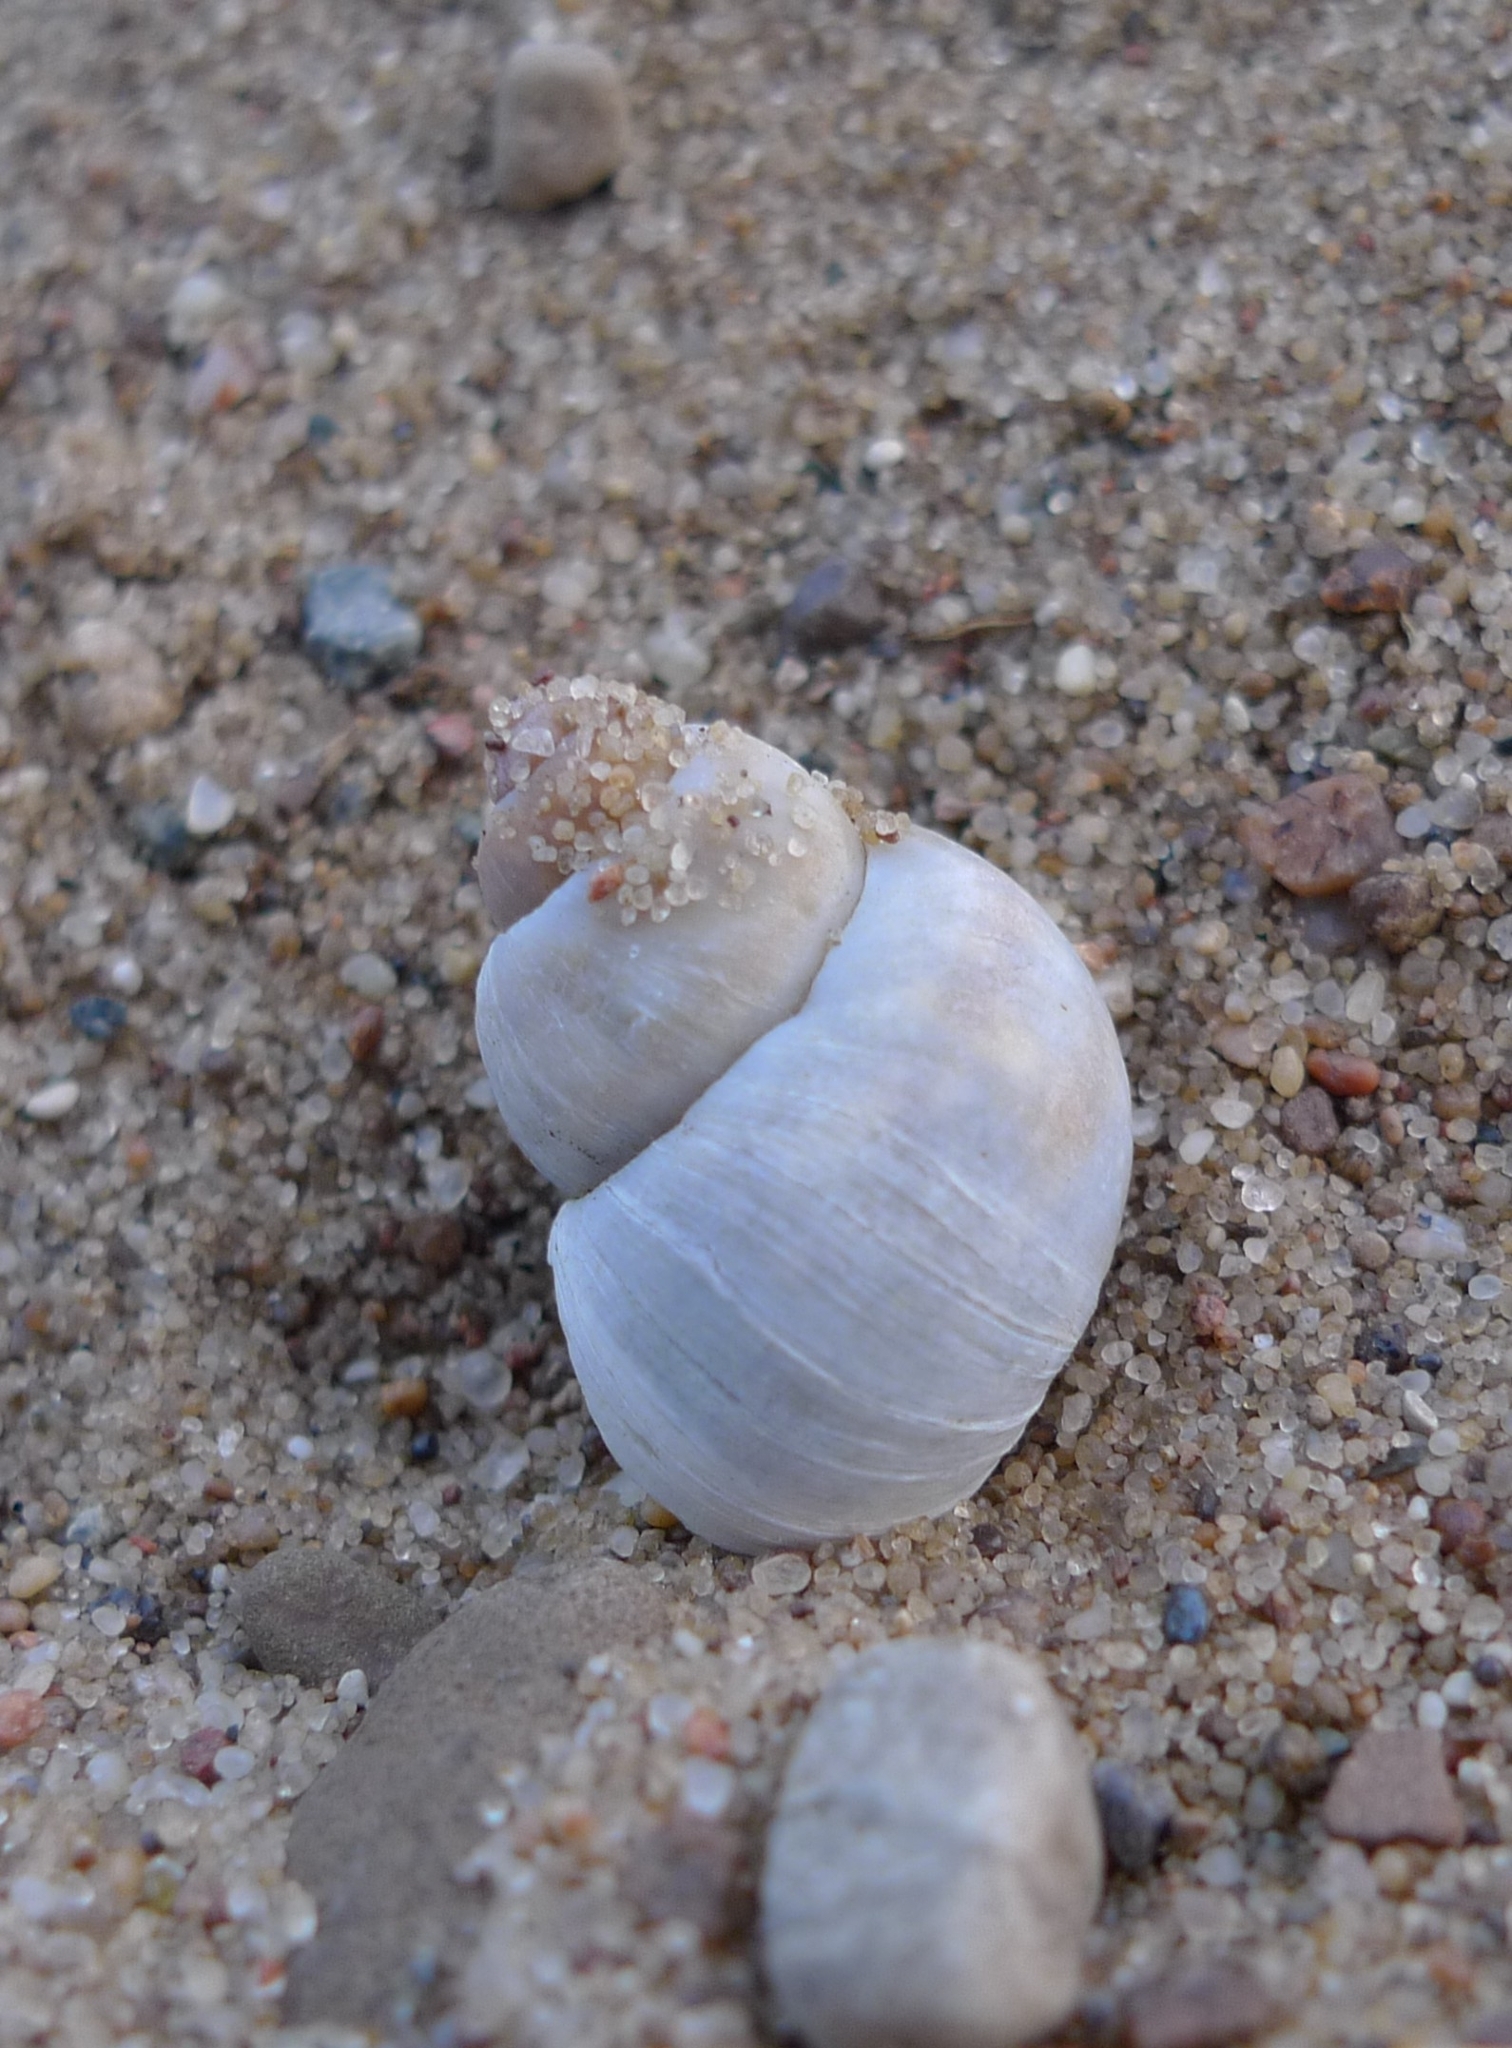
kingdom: Animalia
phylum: Mollusca
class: Gastropoda
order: Architaenioglossa
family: Viviparidae
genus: Viviparus
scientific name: Viviparus viviparus
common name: River snail
